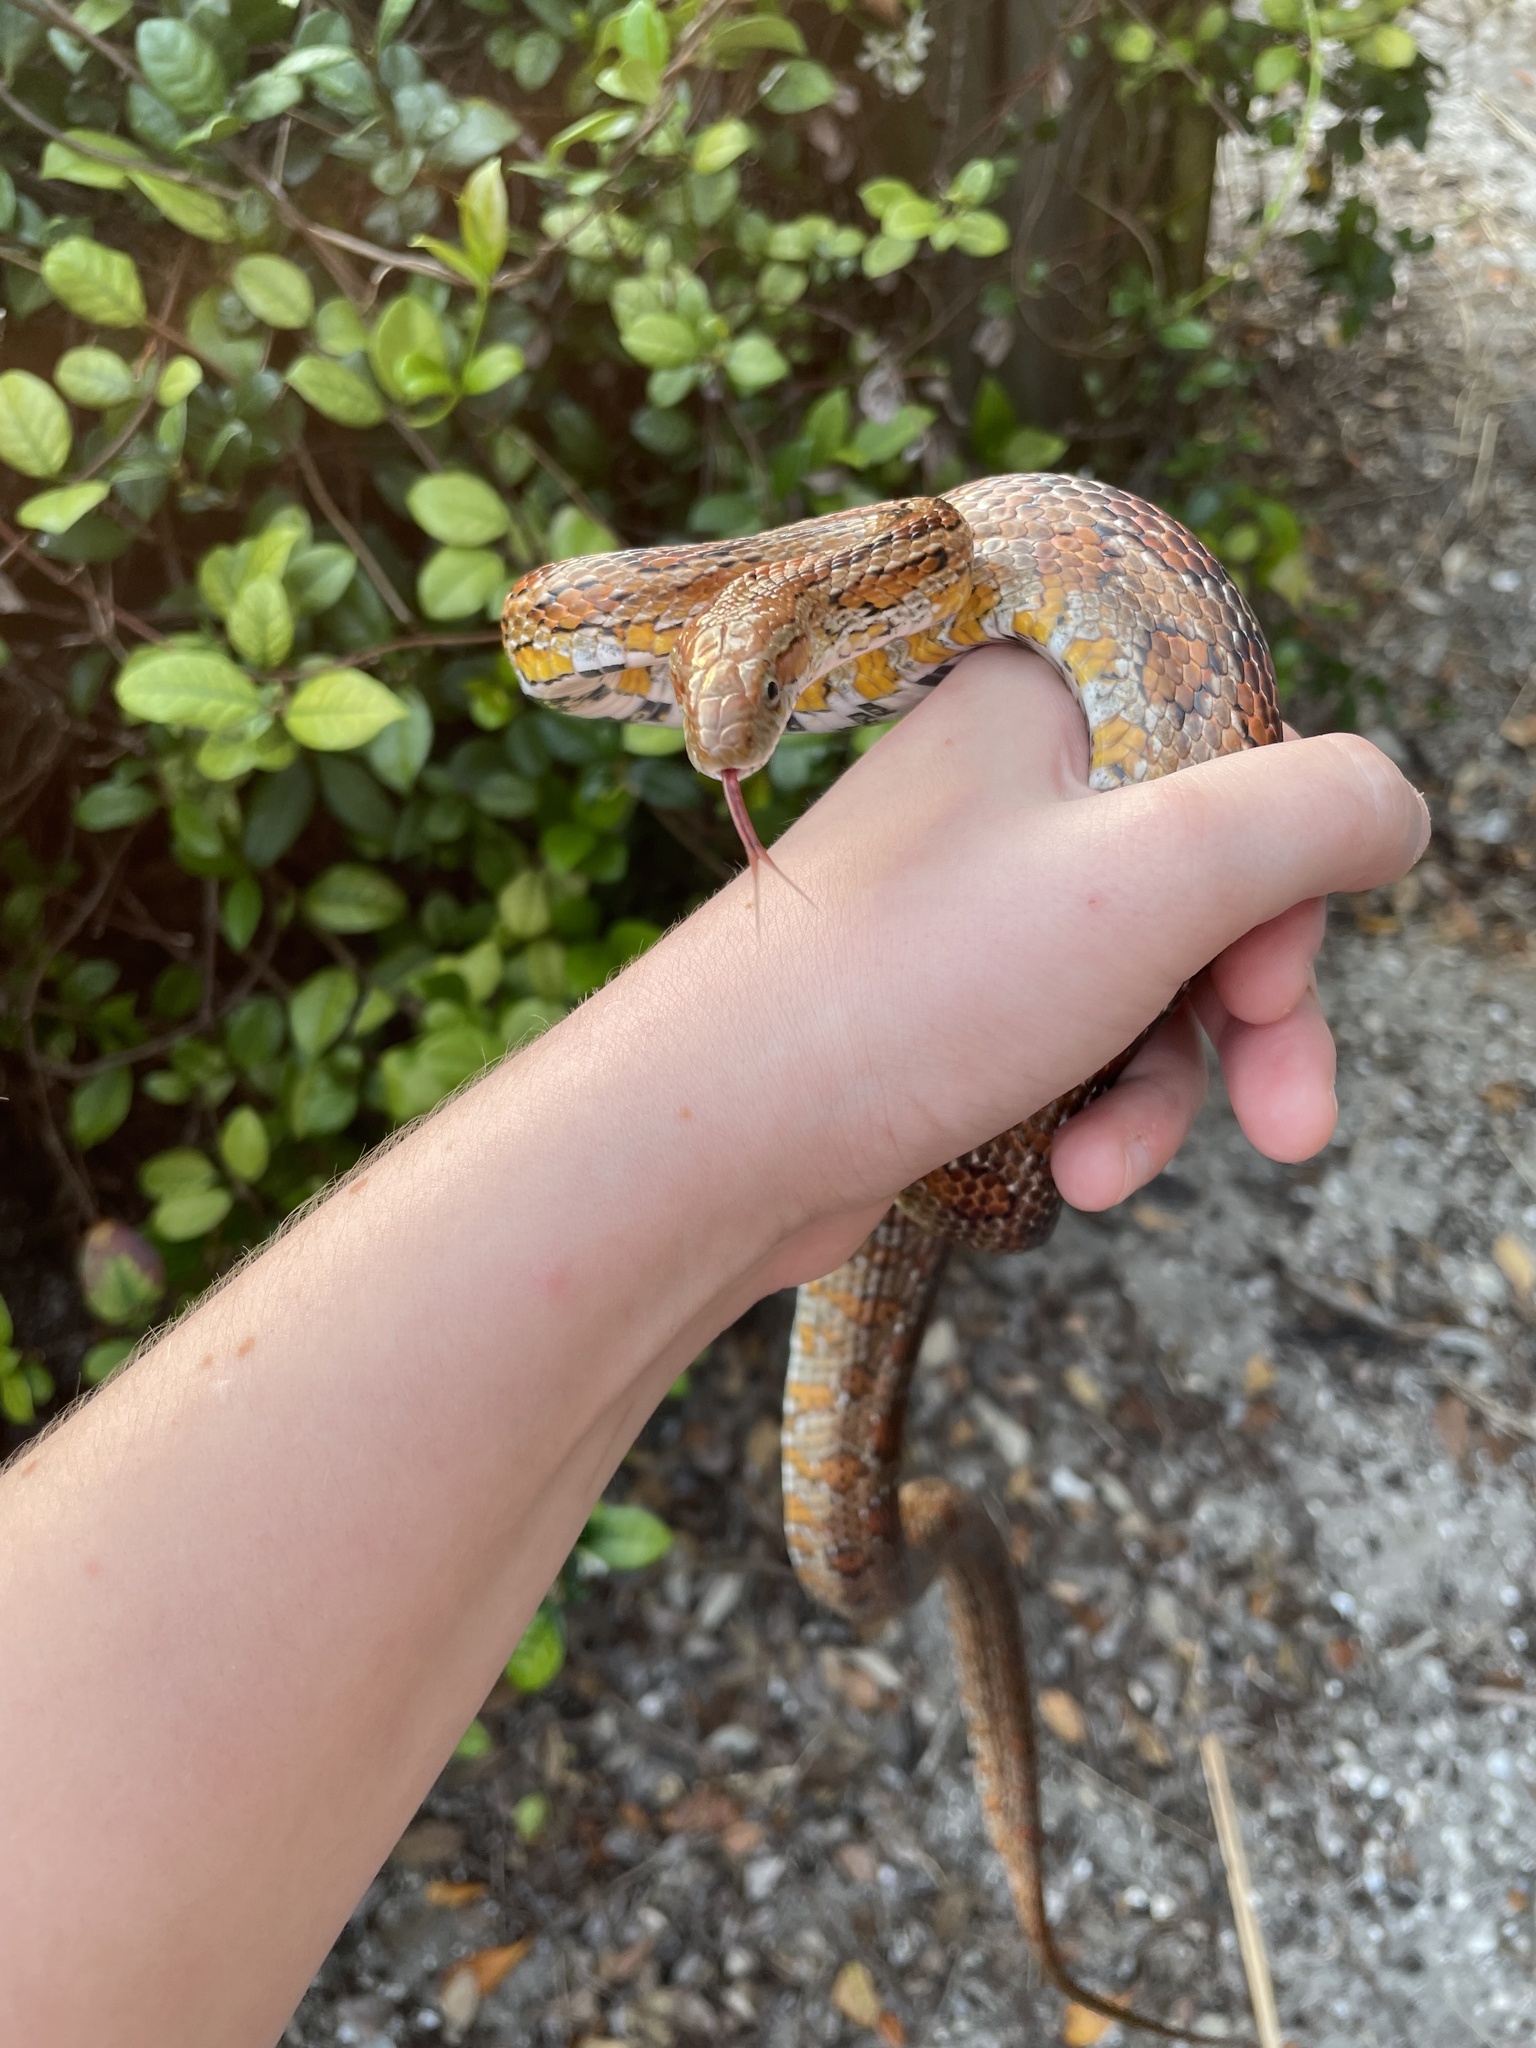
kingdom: Animalia
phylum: Chordata
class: Squamata
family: Colubridae
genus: Pantherophis
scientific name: Pantherophis guttatus
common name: Red cornsnake
